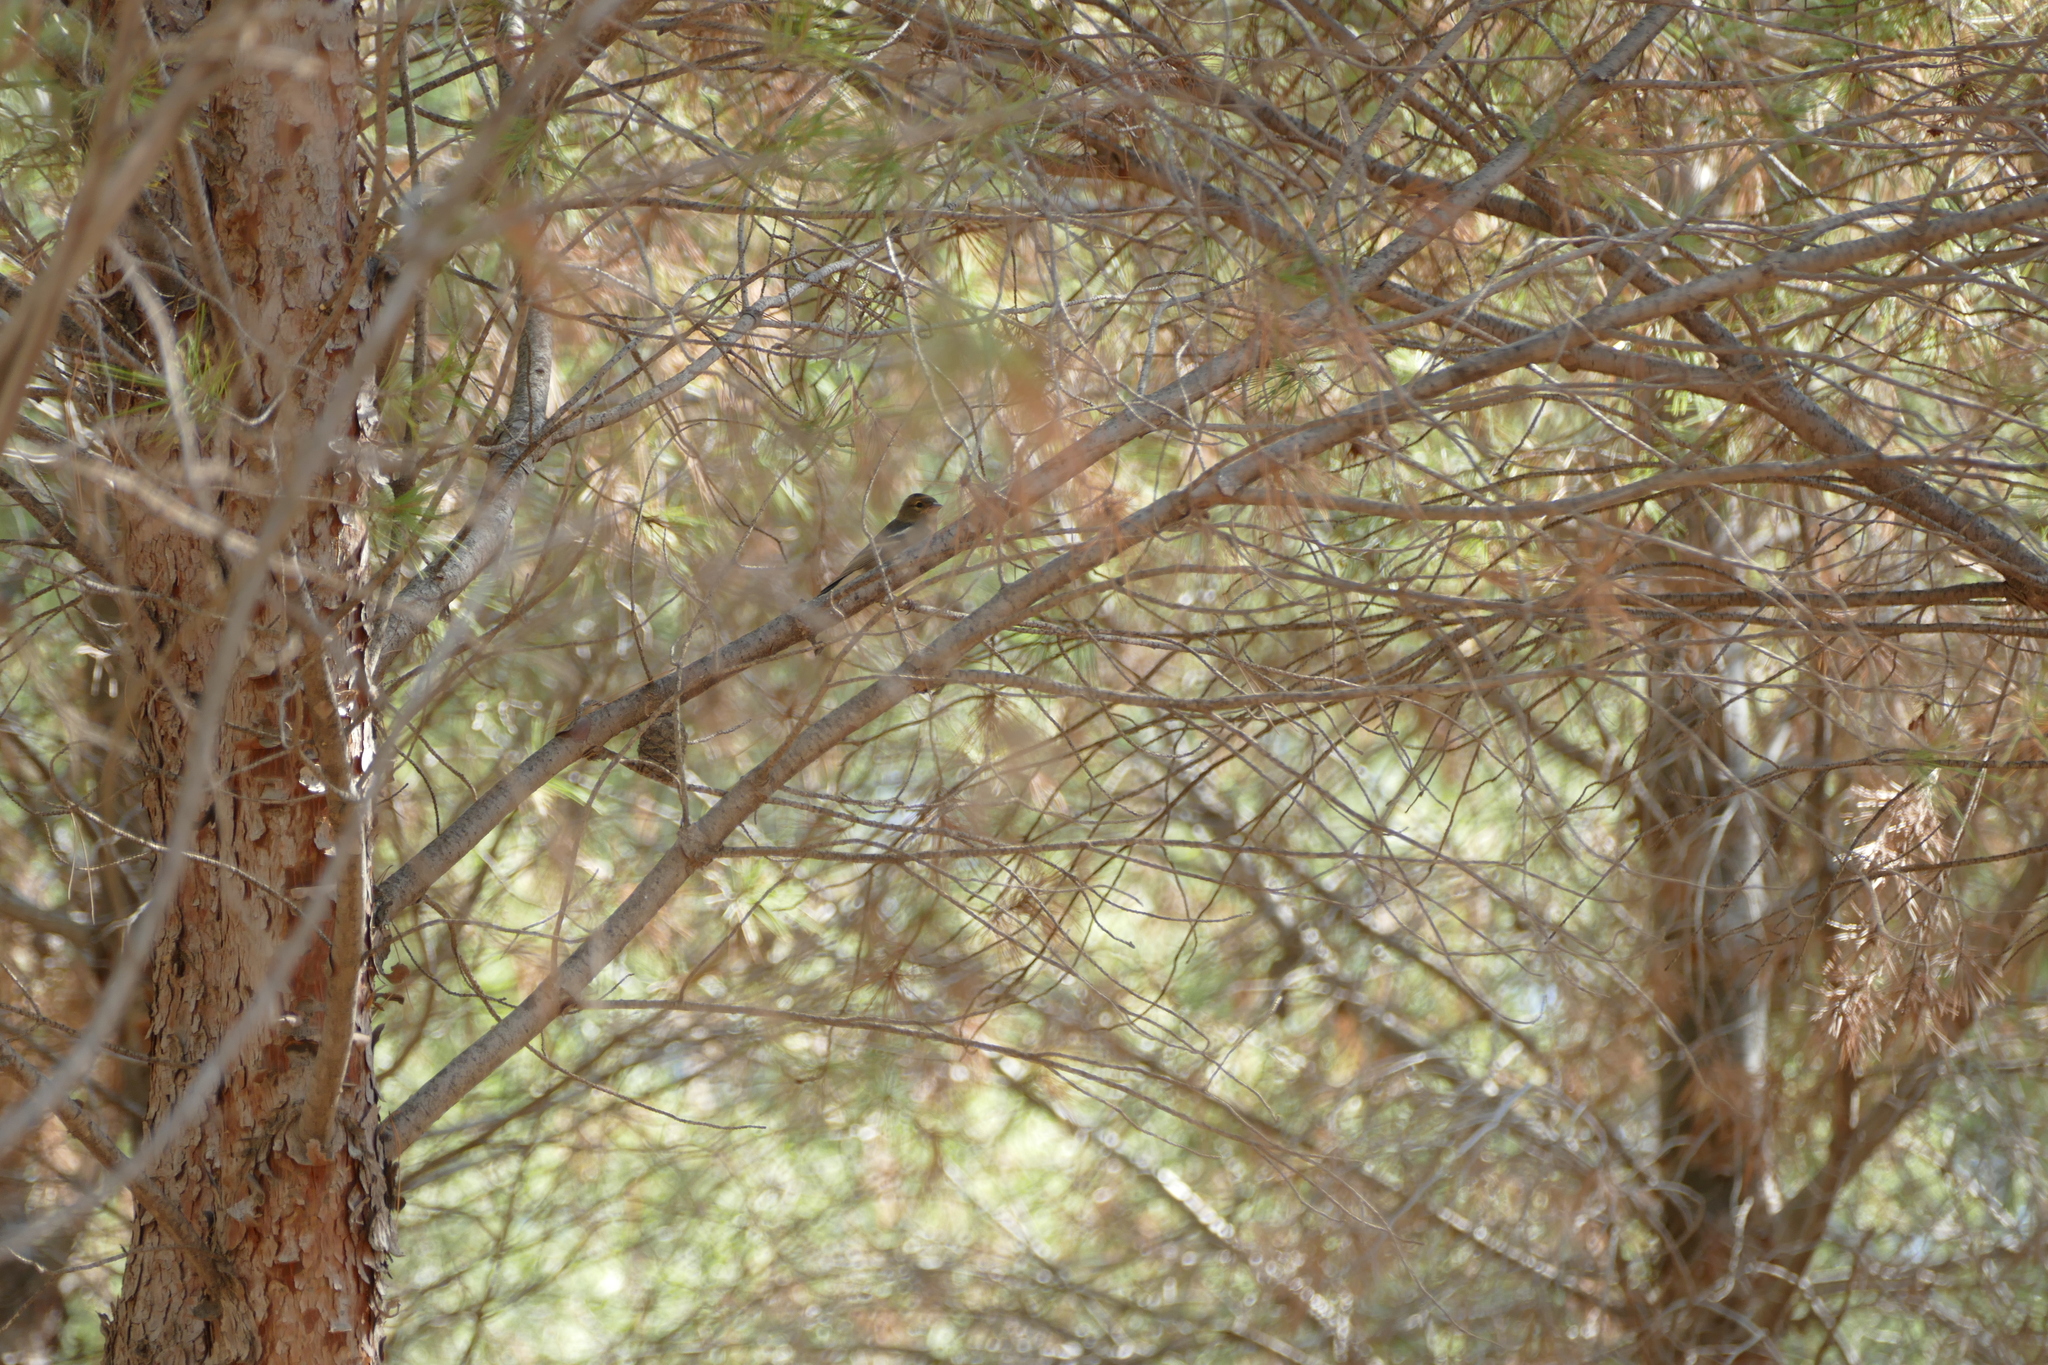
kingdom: Animalia
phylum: Chordata
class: Aves
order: Passeriformes
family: Fringillidae
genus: Fringilla
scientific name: Fringilla coelebs
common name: Common chaffinch
